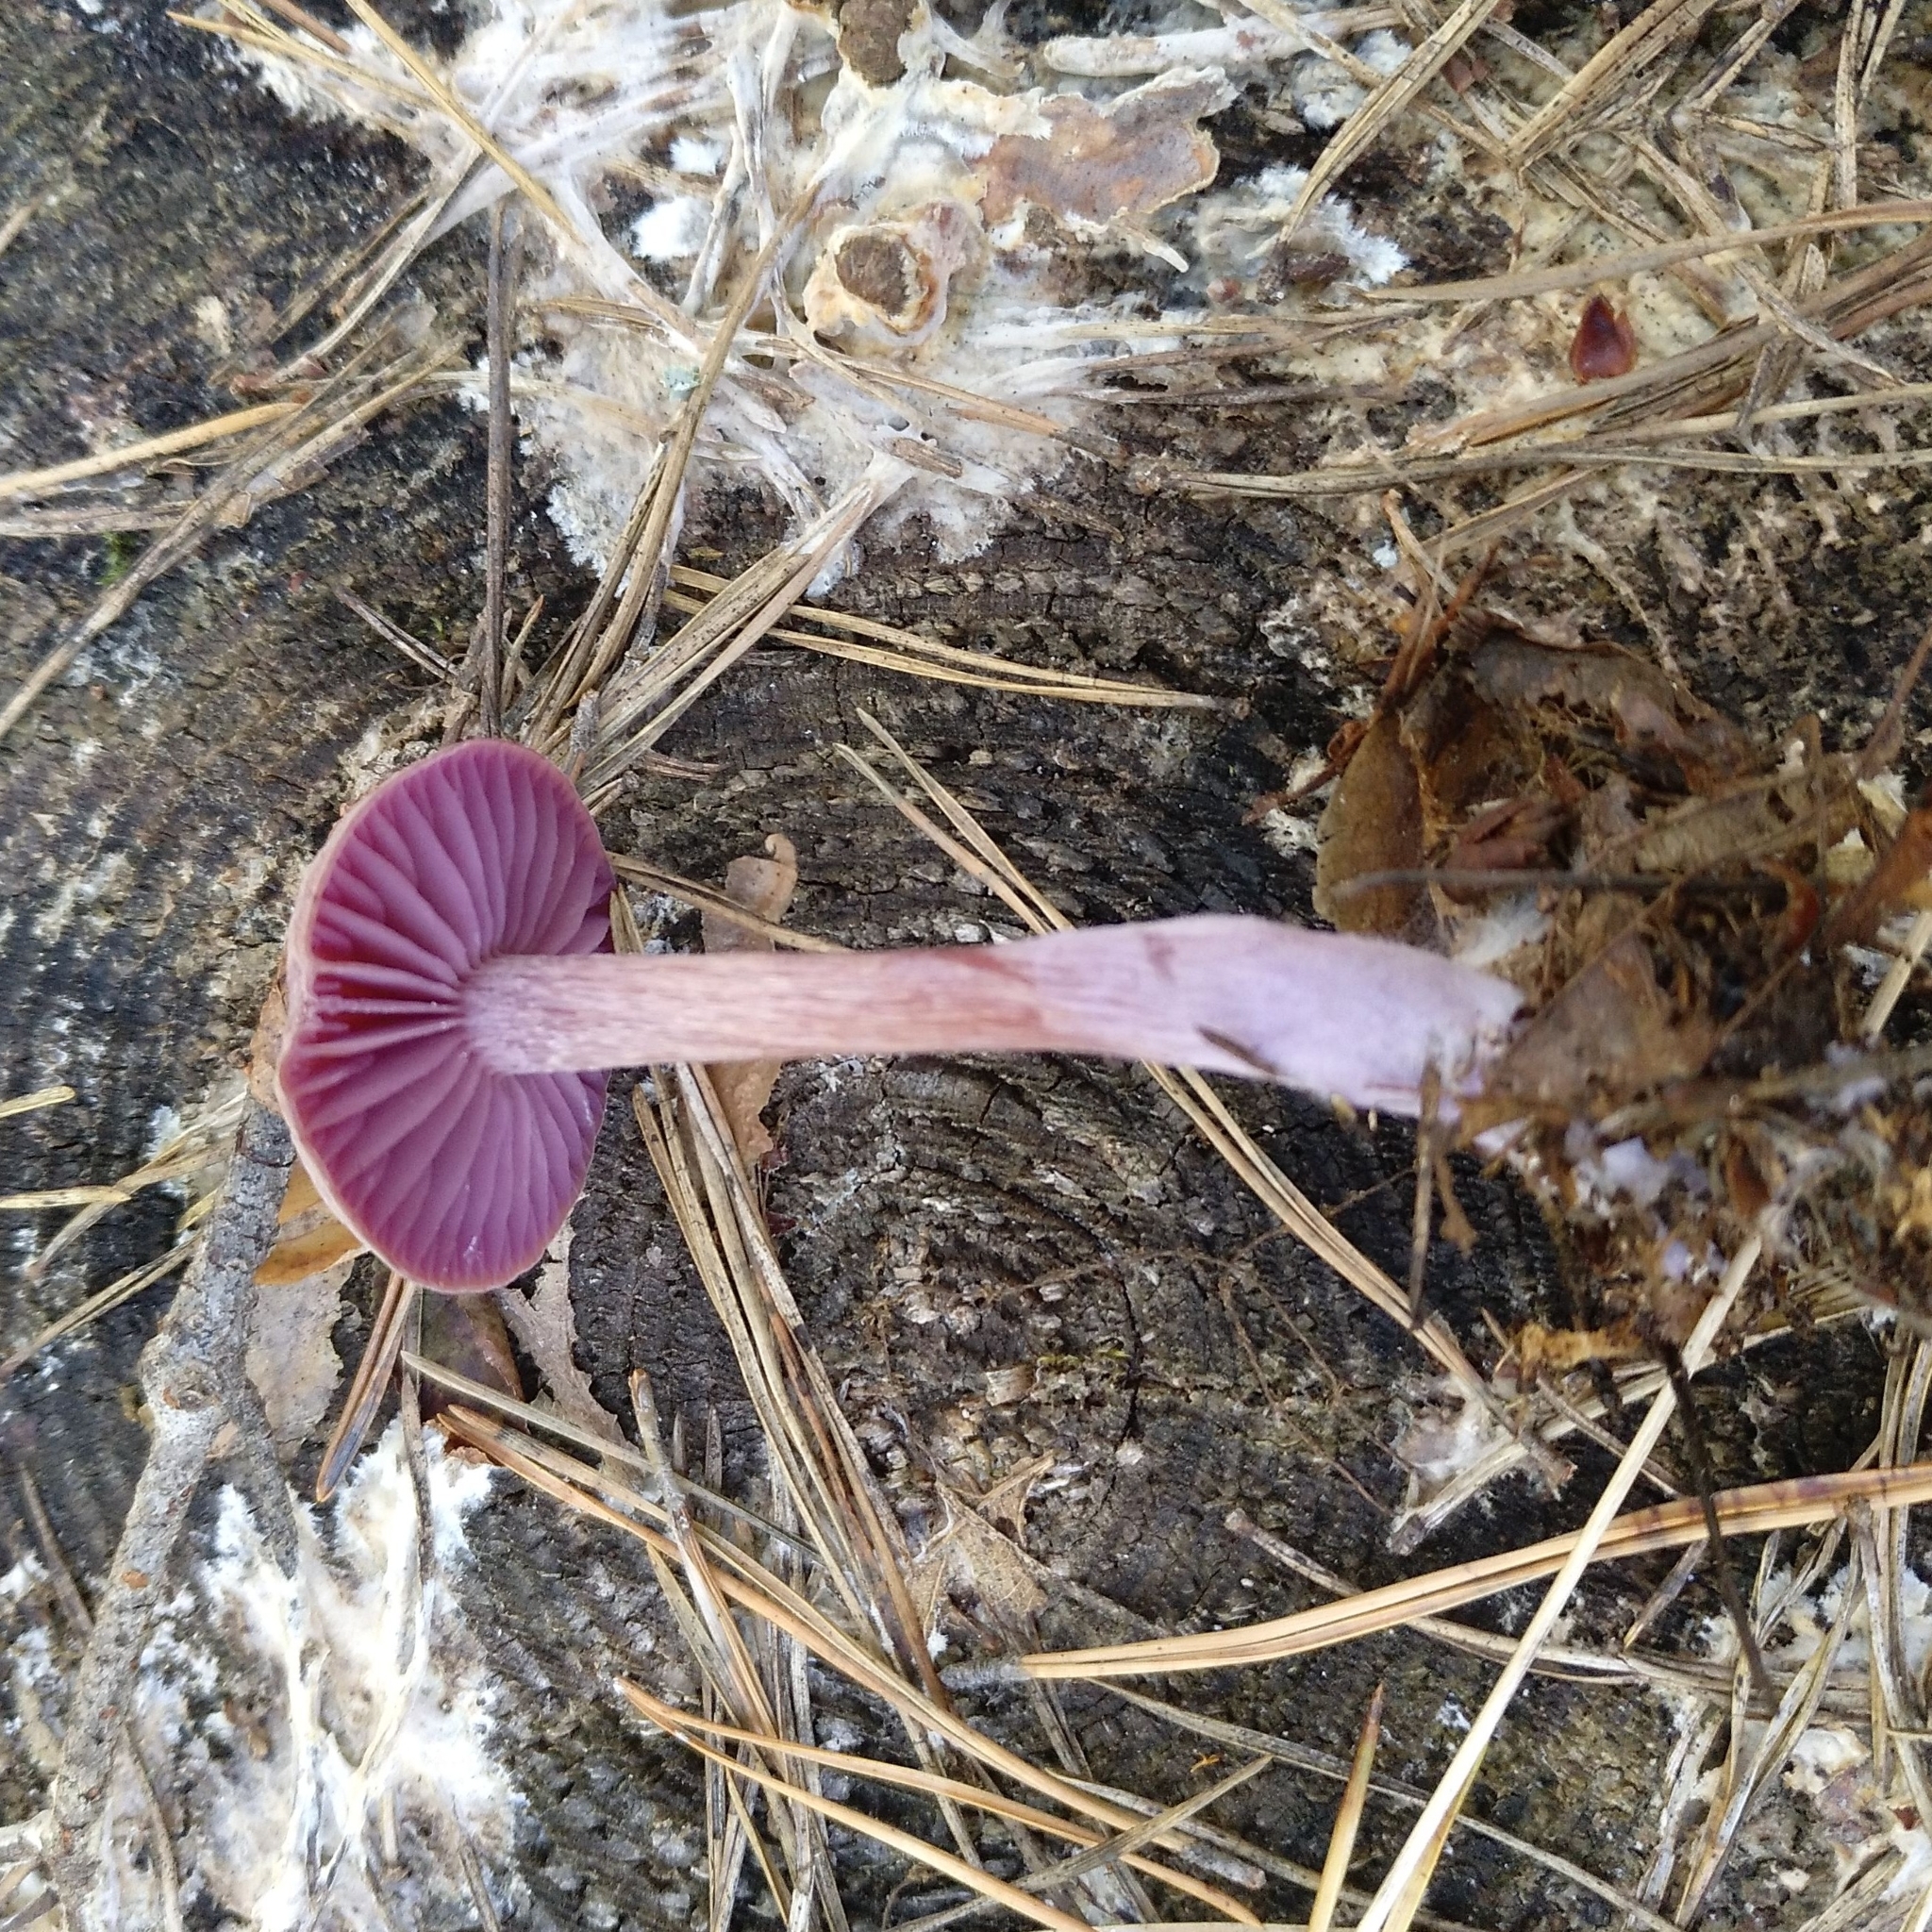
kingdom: Fungi
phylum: Basidiomycota
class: Agaricomycetes
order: Agaricales
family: Hydnangiaceae
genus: Laccaria
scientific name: Laccaria amethystina
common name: Amethyst deceiver
